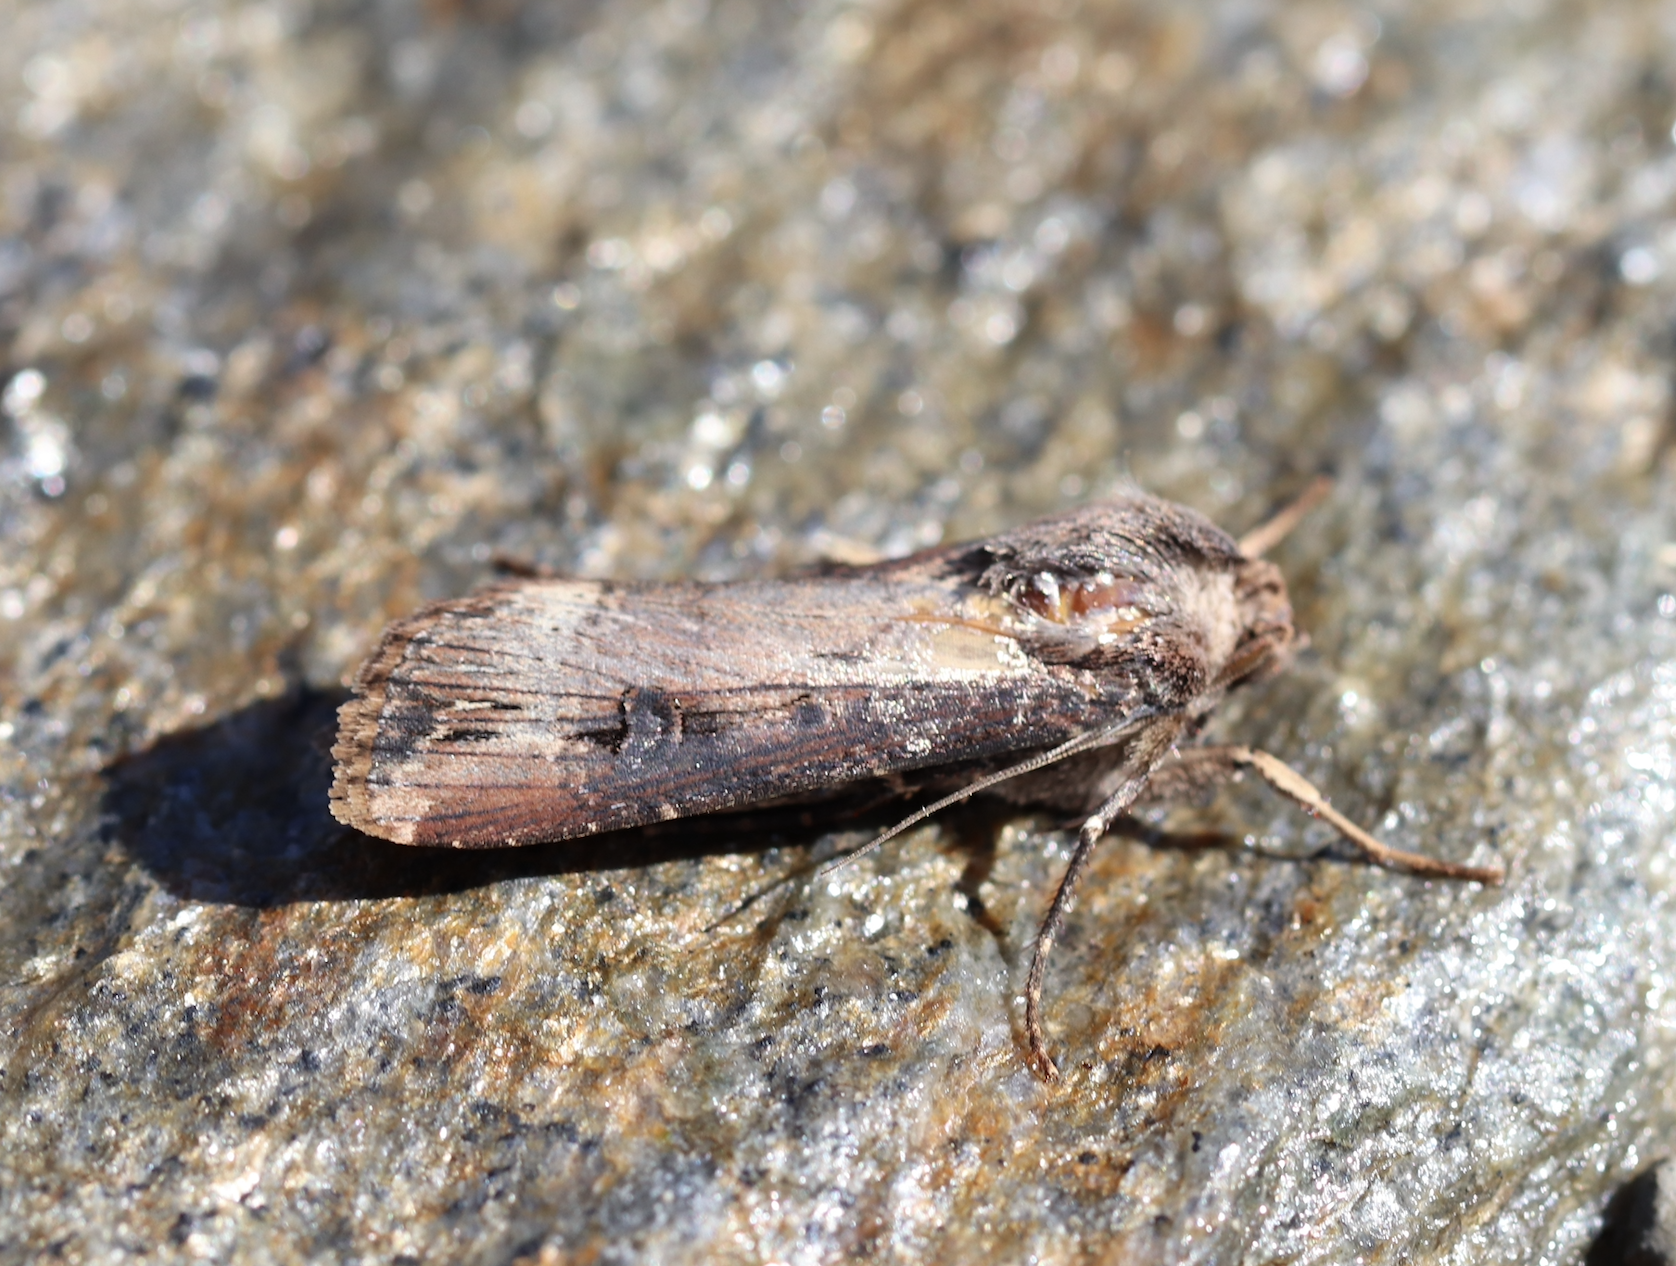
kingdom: Animalia
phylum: Arthropoda
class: Insecta
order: Lepidoptera
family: Noctuidae
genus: Agrotis
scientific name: Agrotis ipsilon
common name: Dark sword-grass
